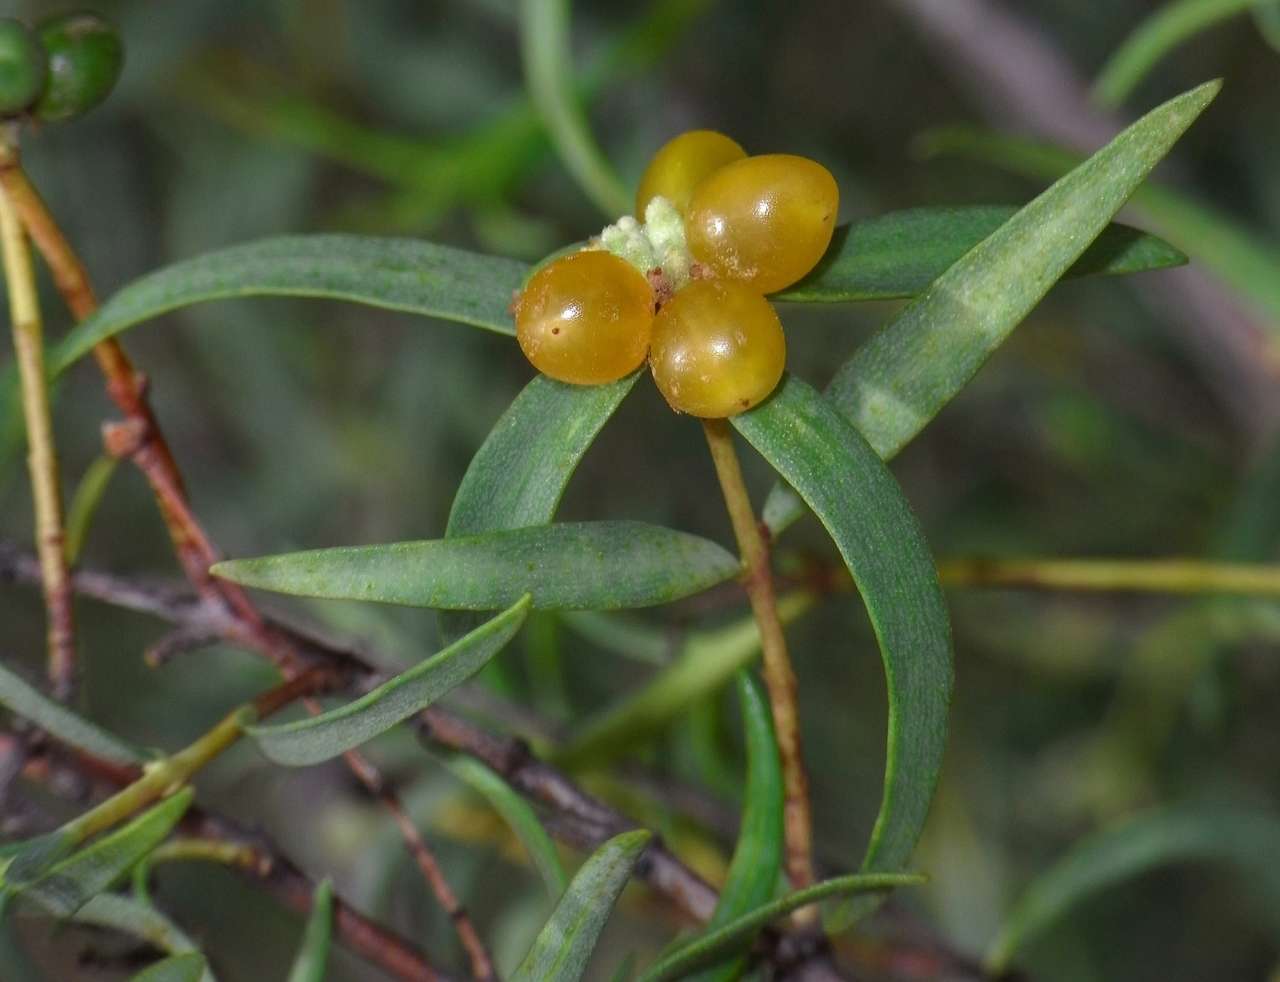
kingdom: Plantae
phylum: Tracheophyta
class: Magnoliopsida
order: Malvales
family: Thymelaeaceae
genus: Pimelea
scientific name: Pimelea microcephala
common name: Mallee riceflower
